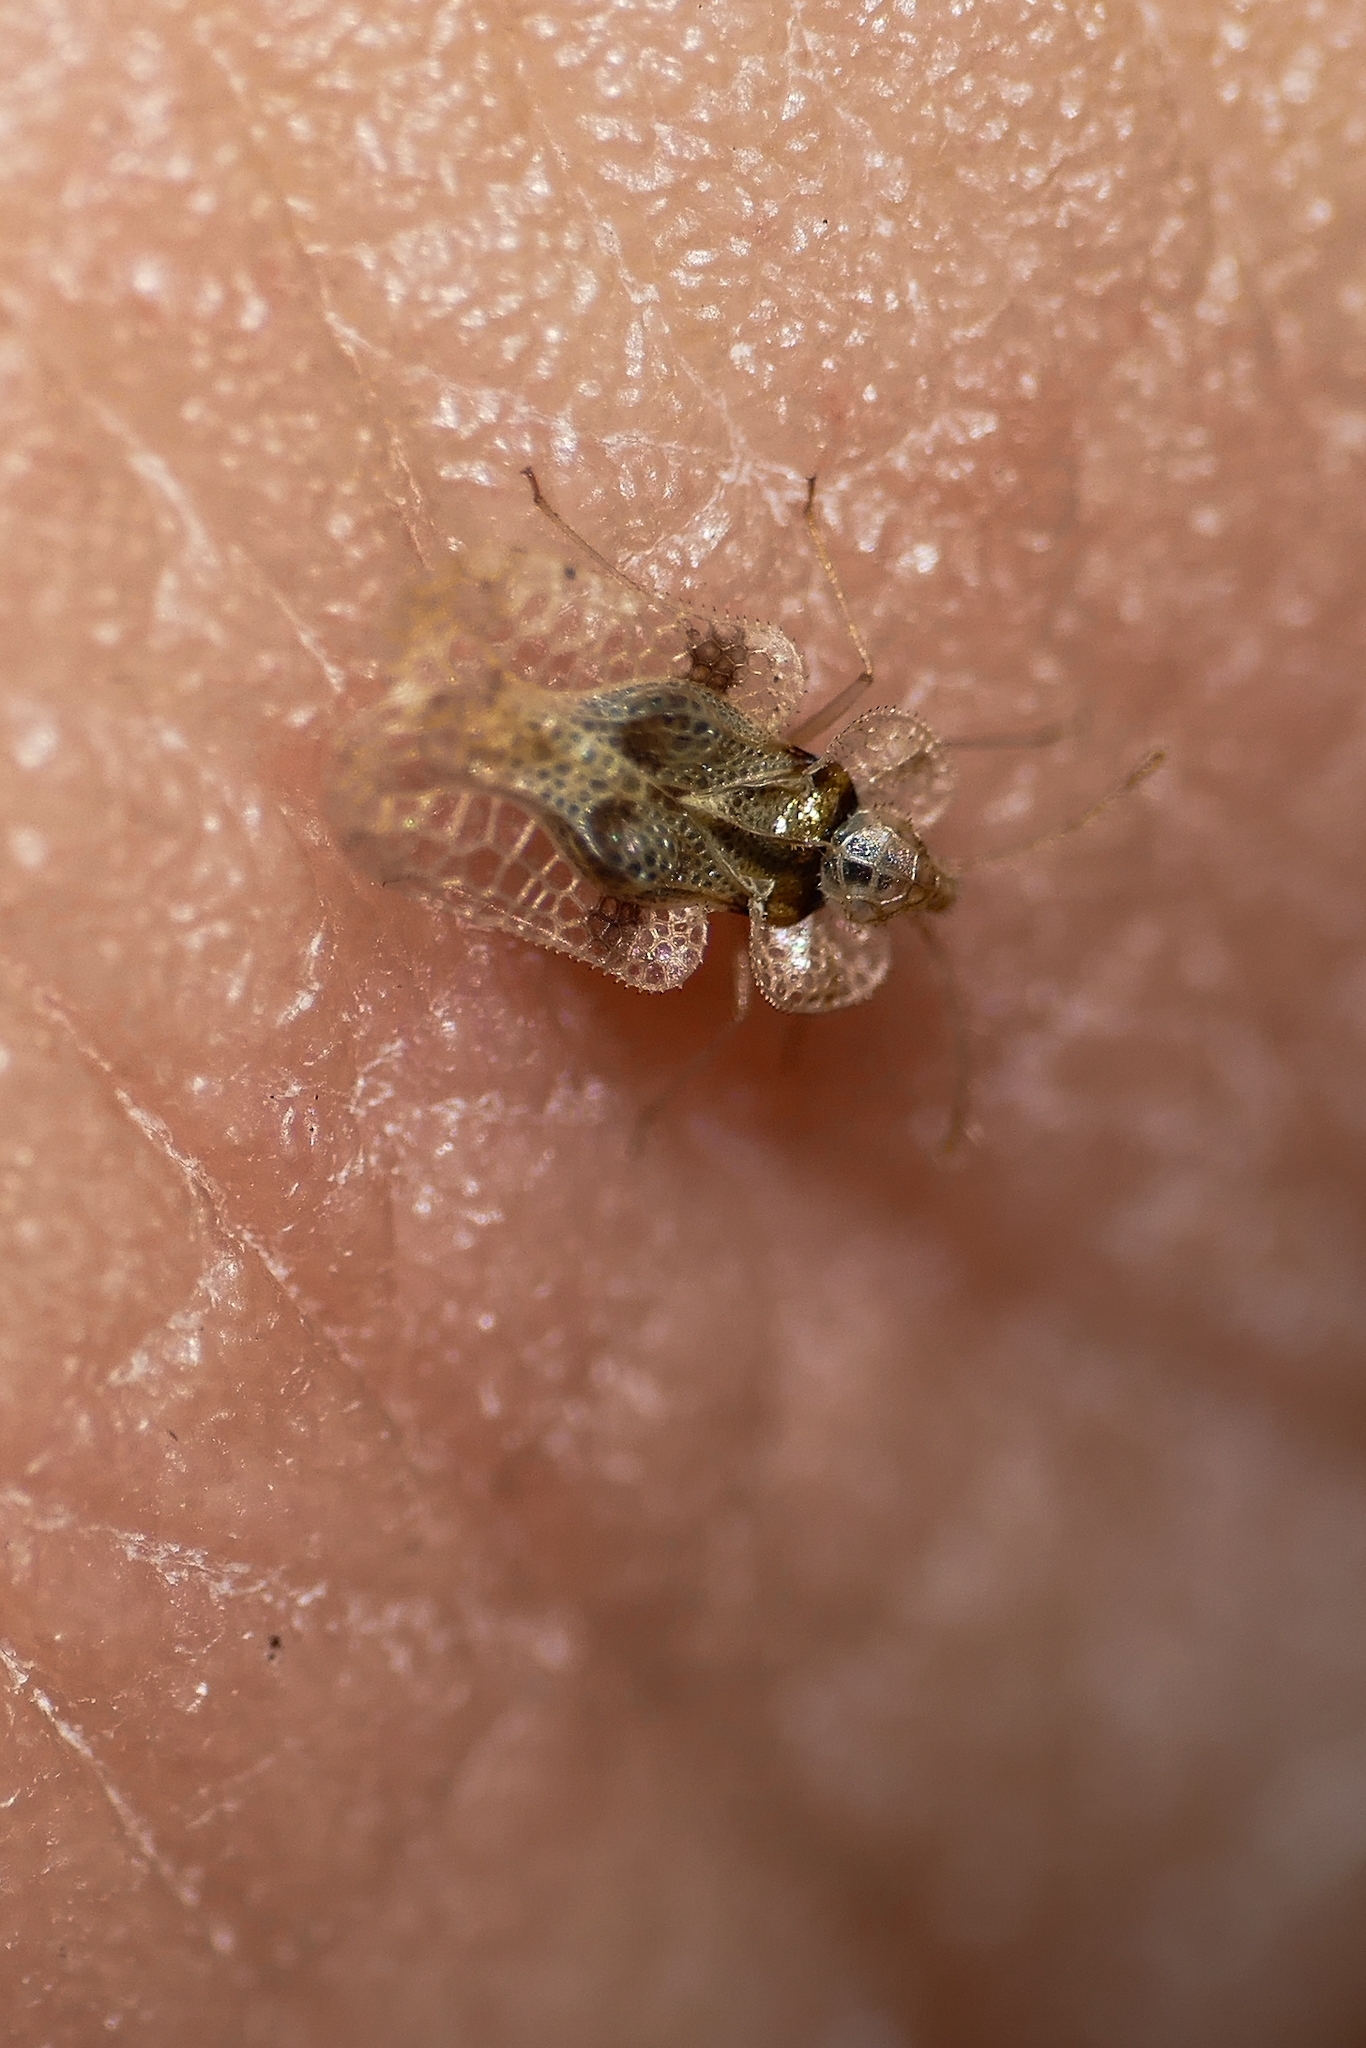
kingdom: Animalia
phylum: Arthropoda
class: Insecta
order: Hemiptera
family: Tingidae
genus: Corythucha
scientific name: Corythucha arcuata
